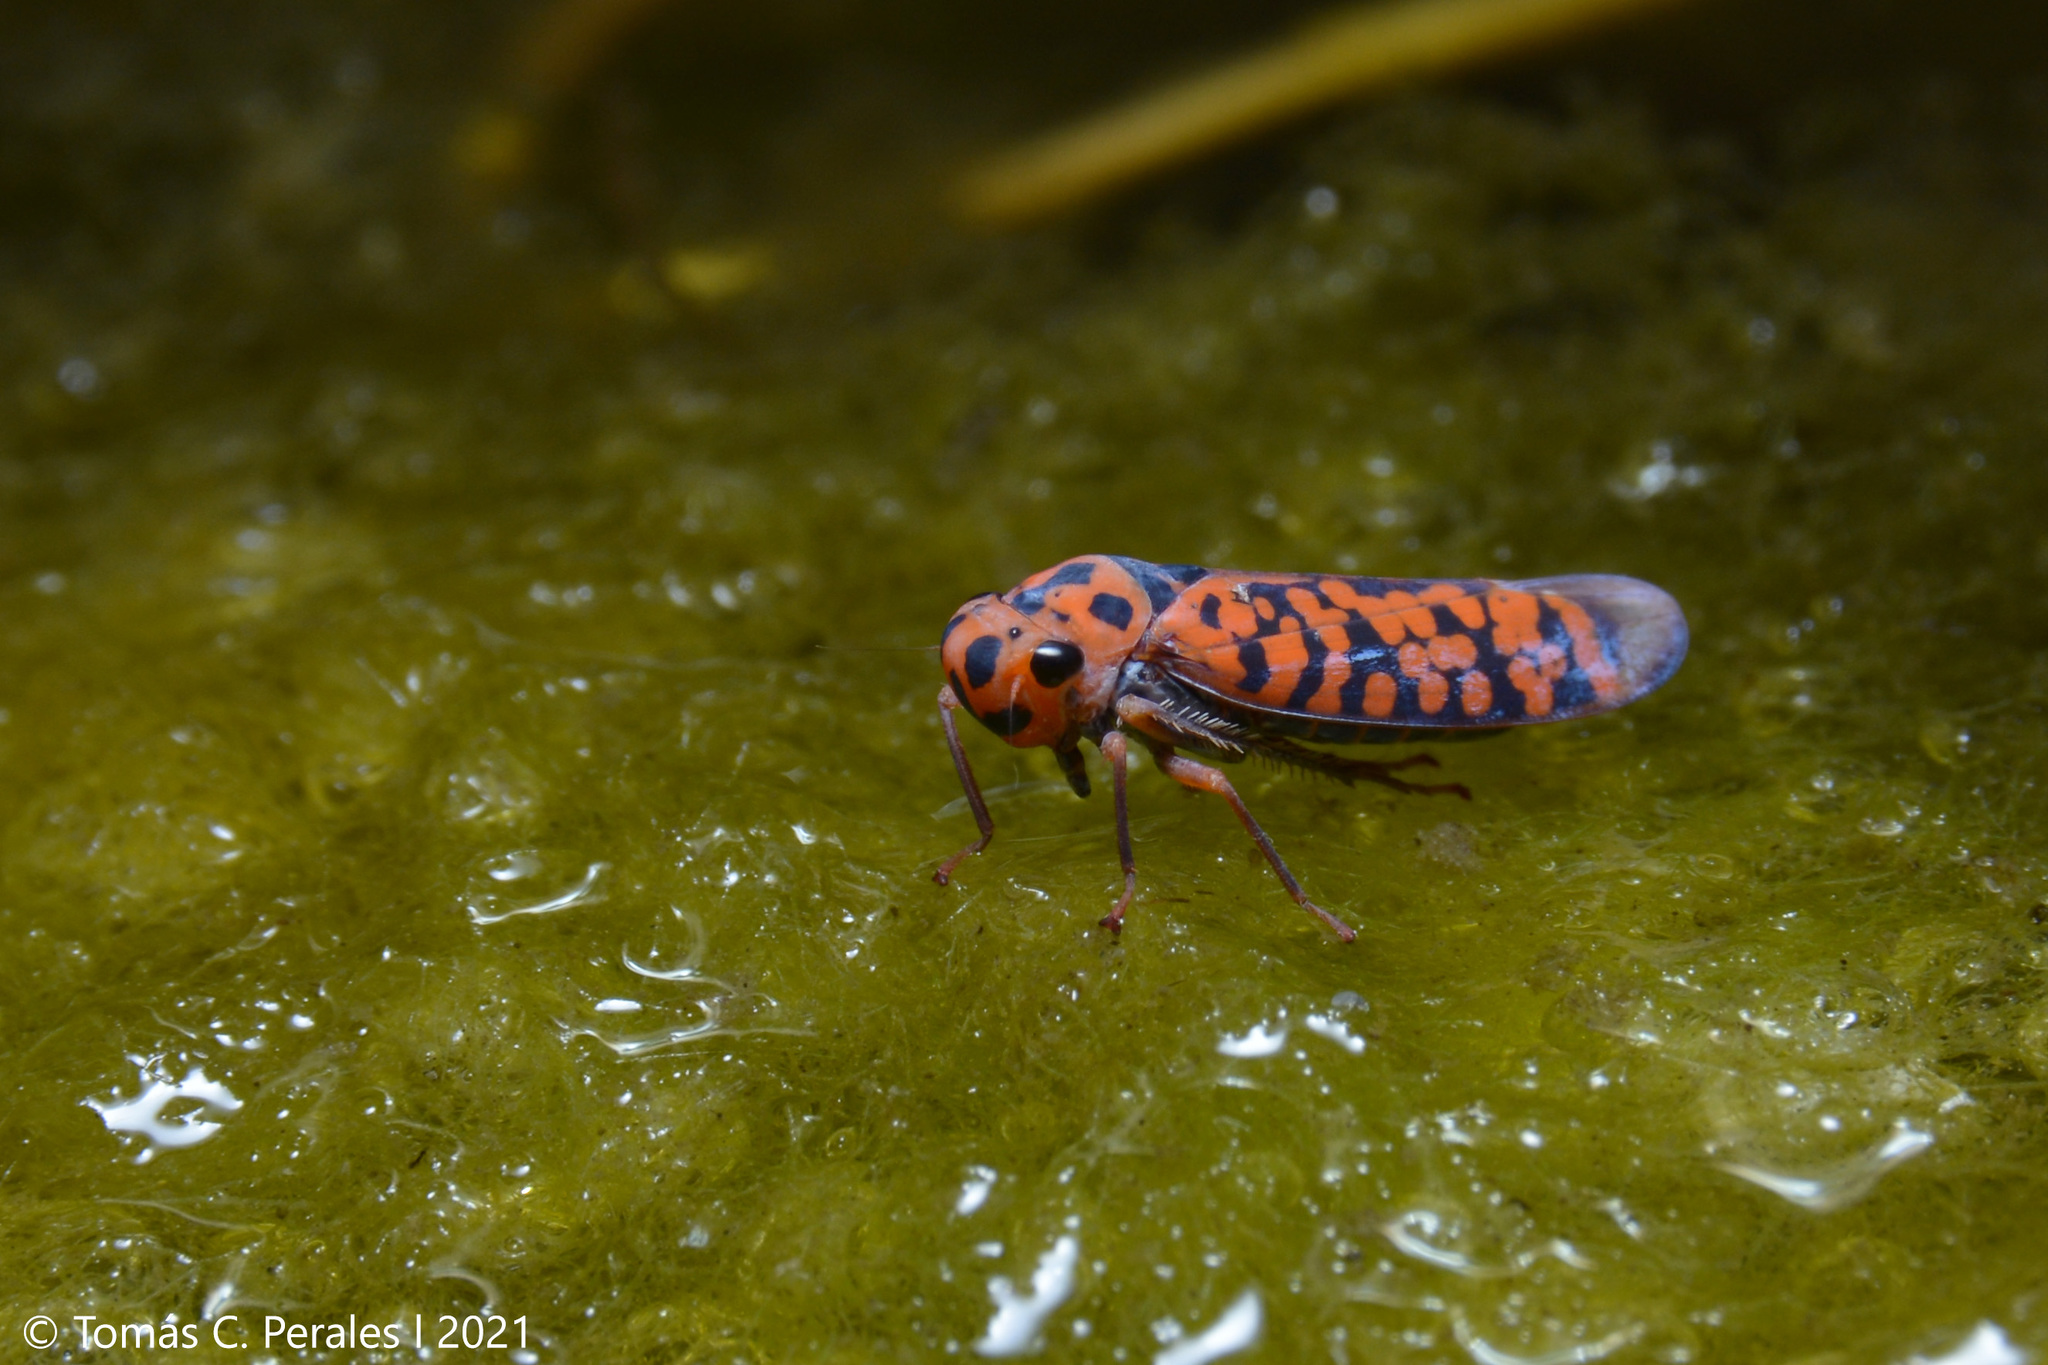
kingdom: Animalia
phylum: Arthropoda
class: Insecta
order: Hemiptera
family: Cicadellidae
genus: Pawiloma
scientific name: Pawiloma victima
